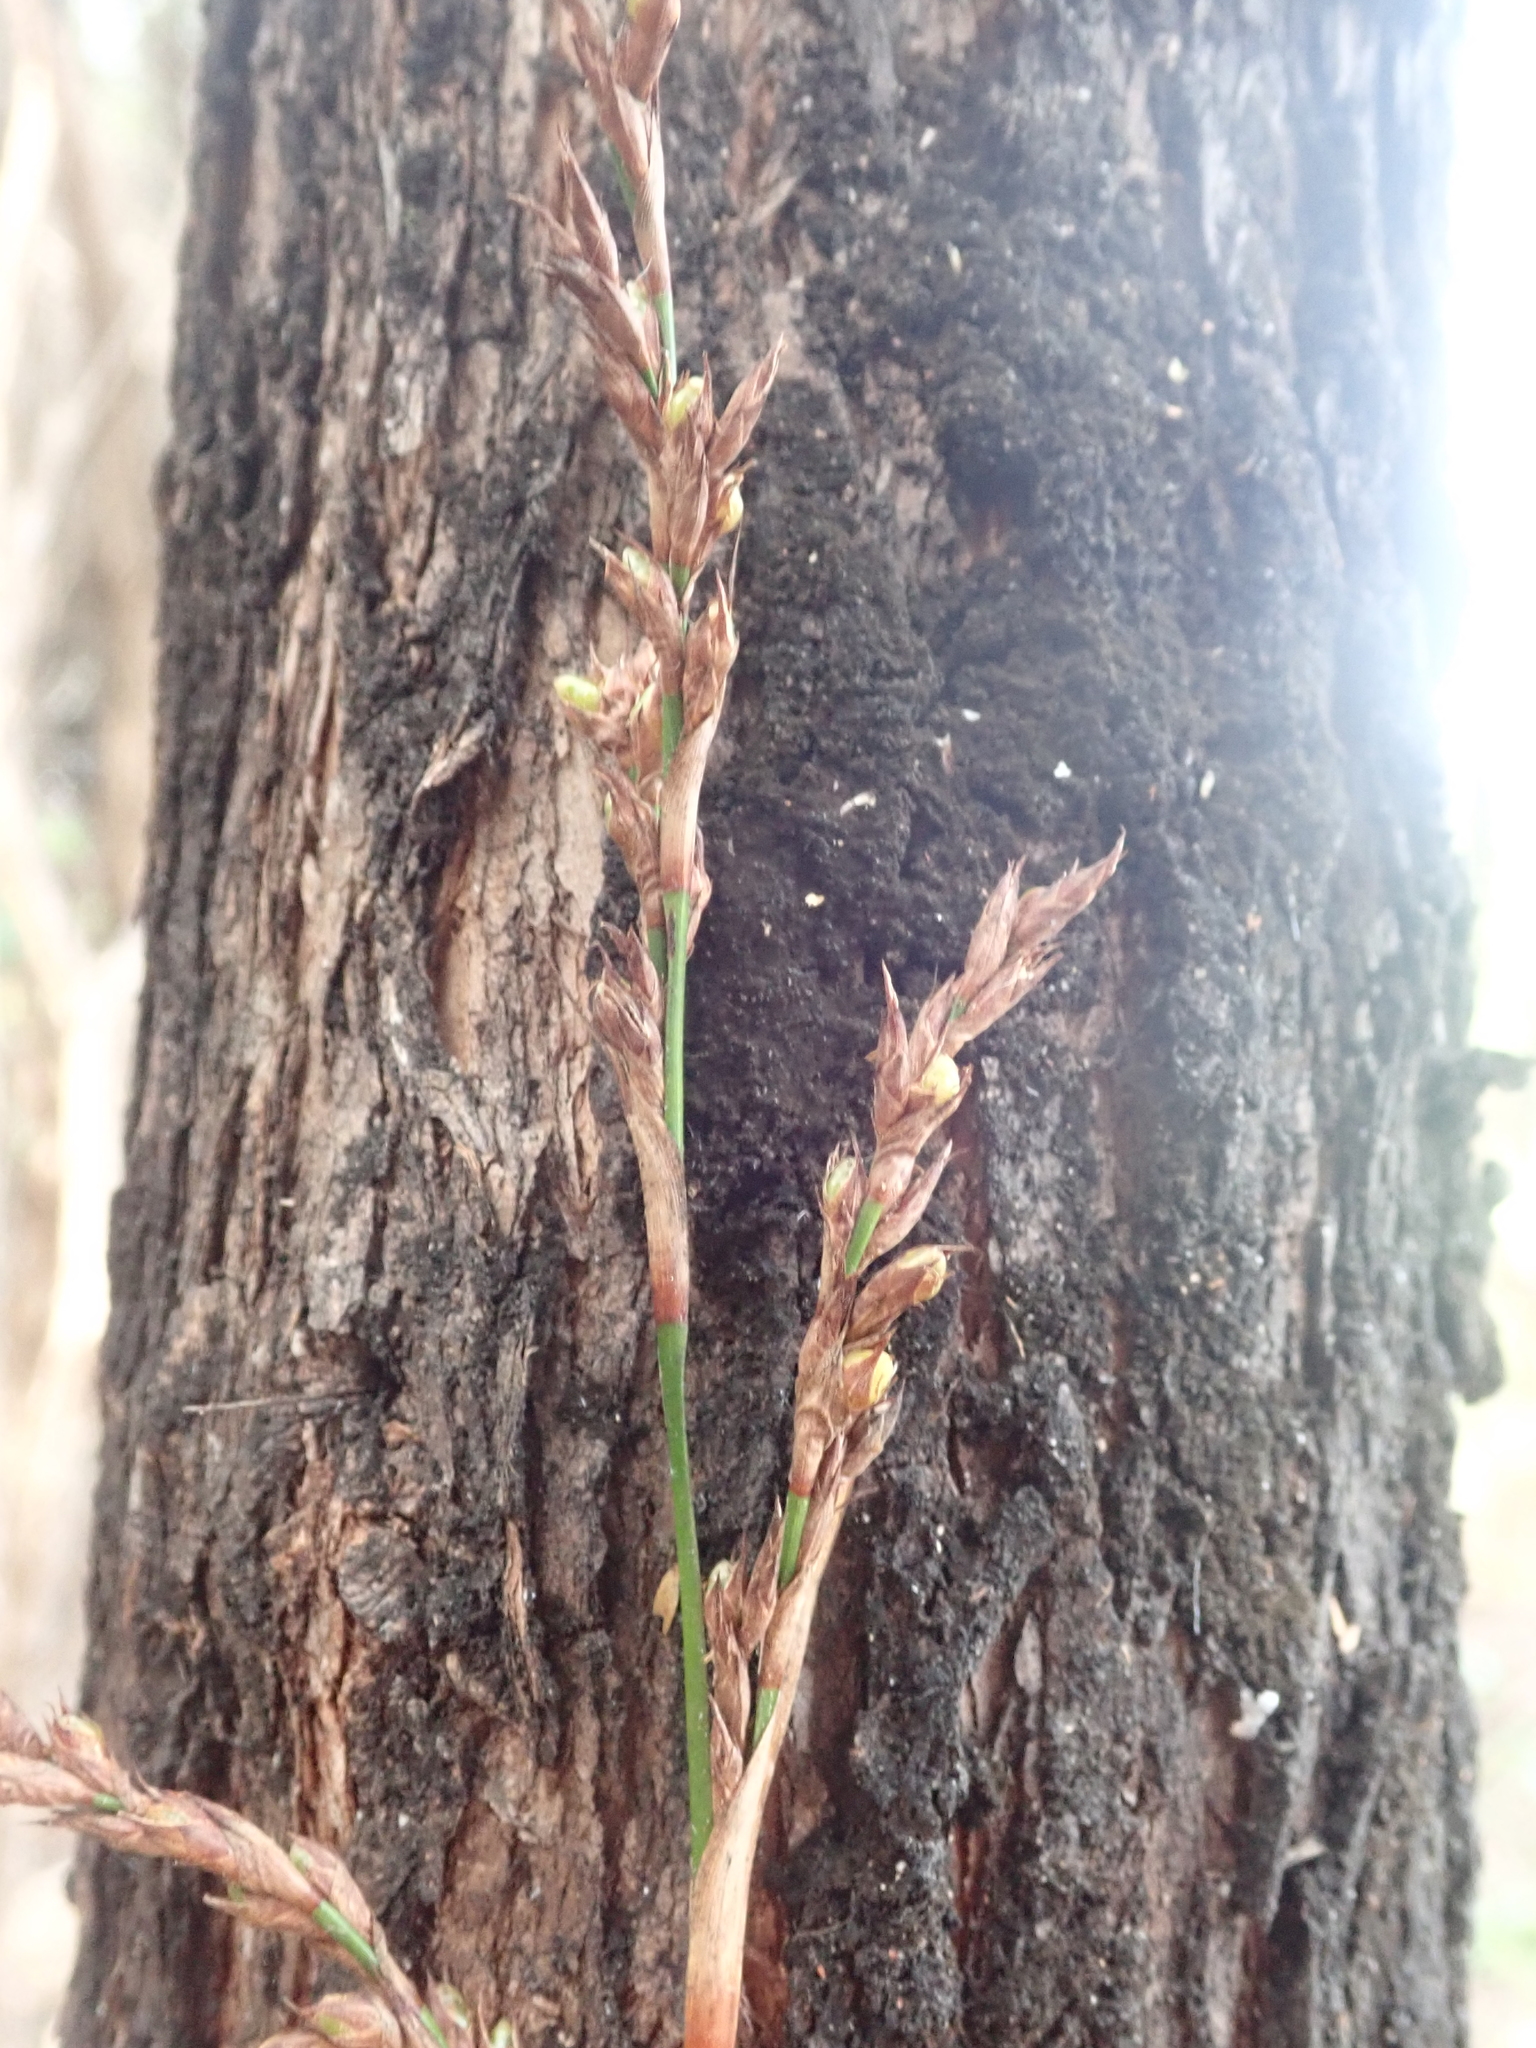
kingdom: Plantae
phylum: Tracheophyta
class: Liliopsida
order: Poales
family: Cyperaceae
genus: Lepidosperma
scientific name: Lepidosperma laterale
